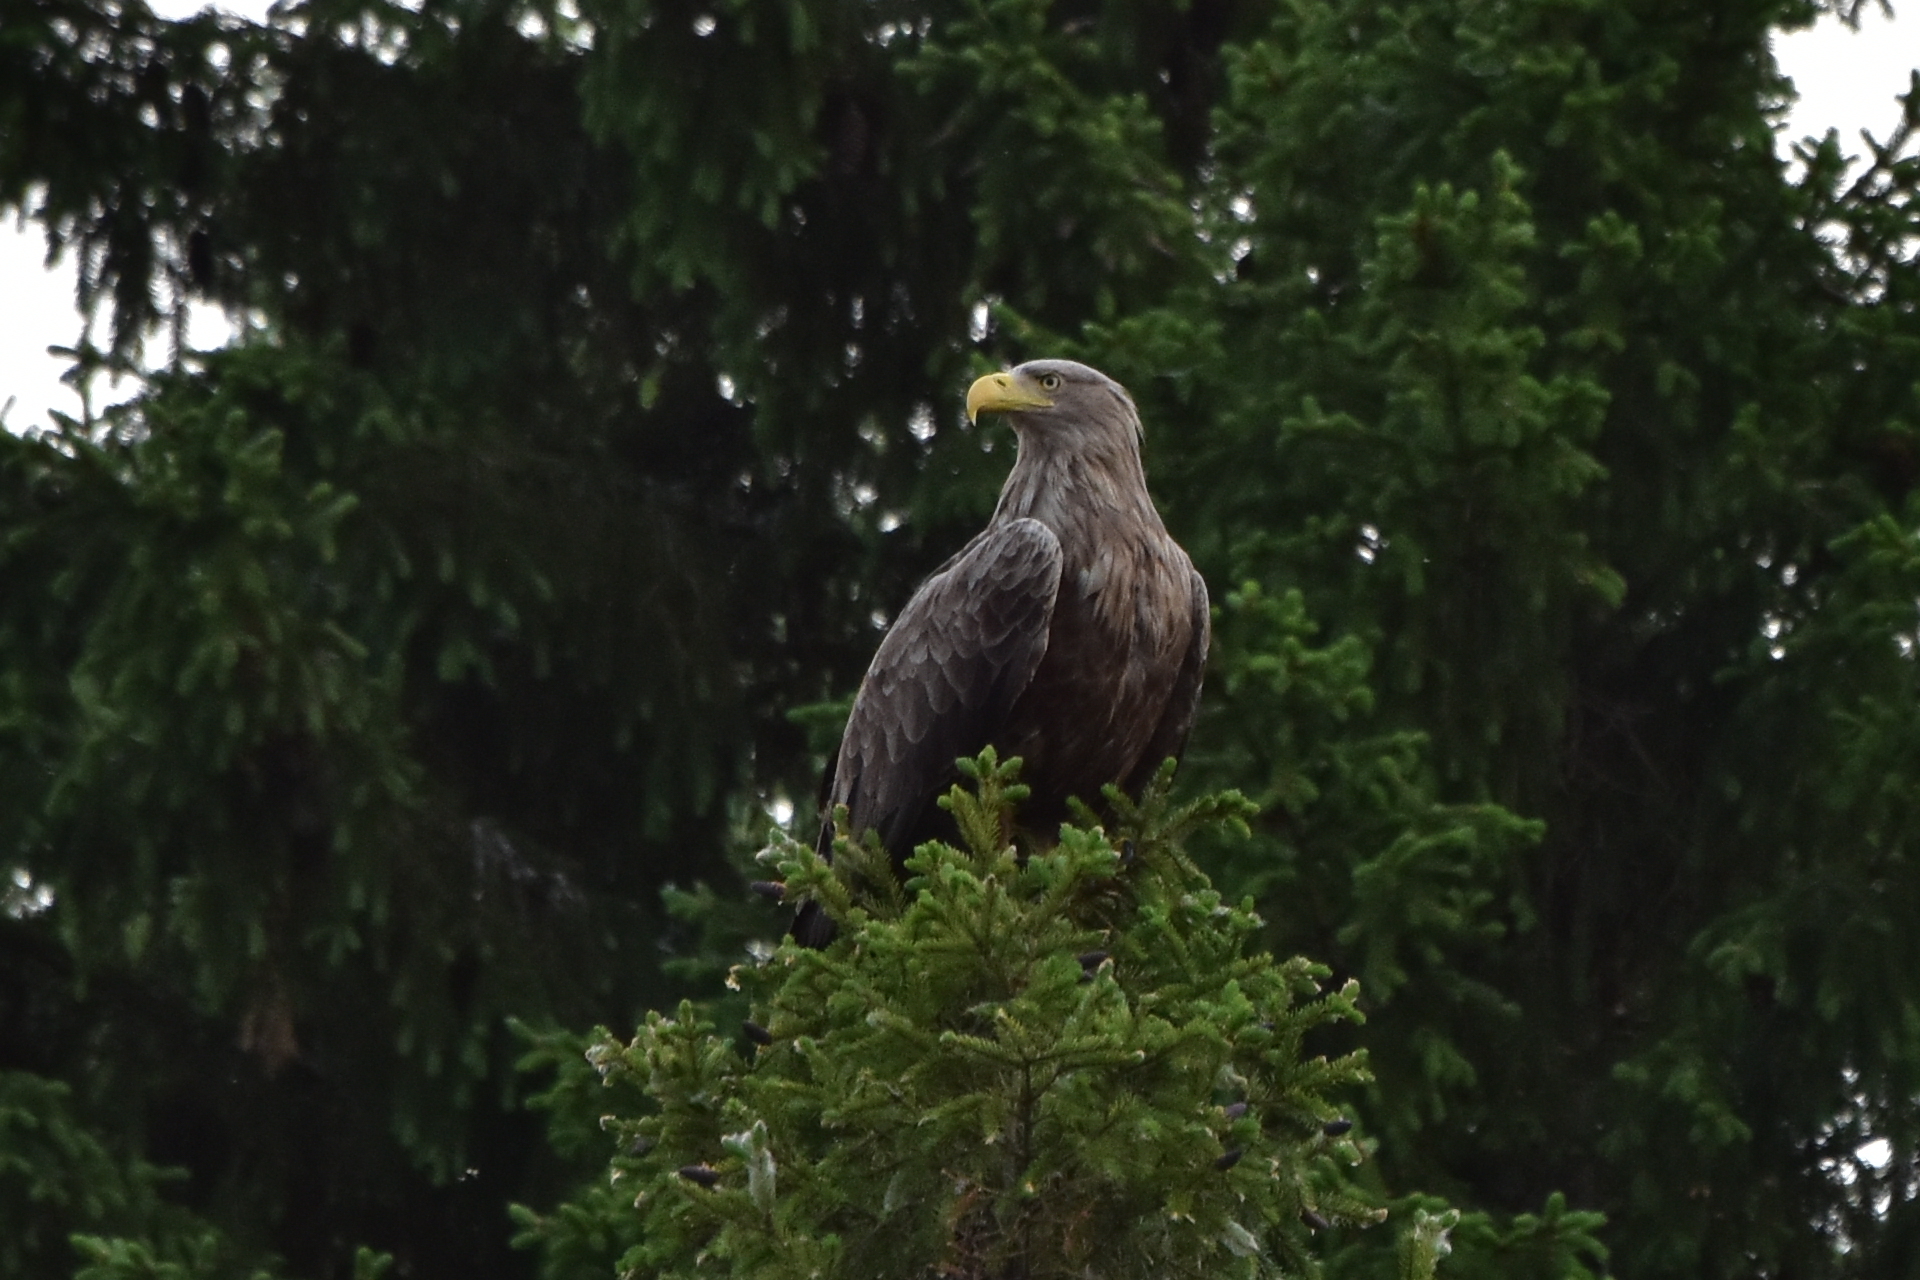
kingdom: Animalia
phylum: Chordata
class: Aves
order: Accipitriformes
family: Accipitridae
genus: Haliaeetus
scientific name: Haliaeetus albicilla
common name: White-tailed eagle
